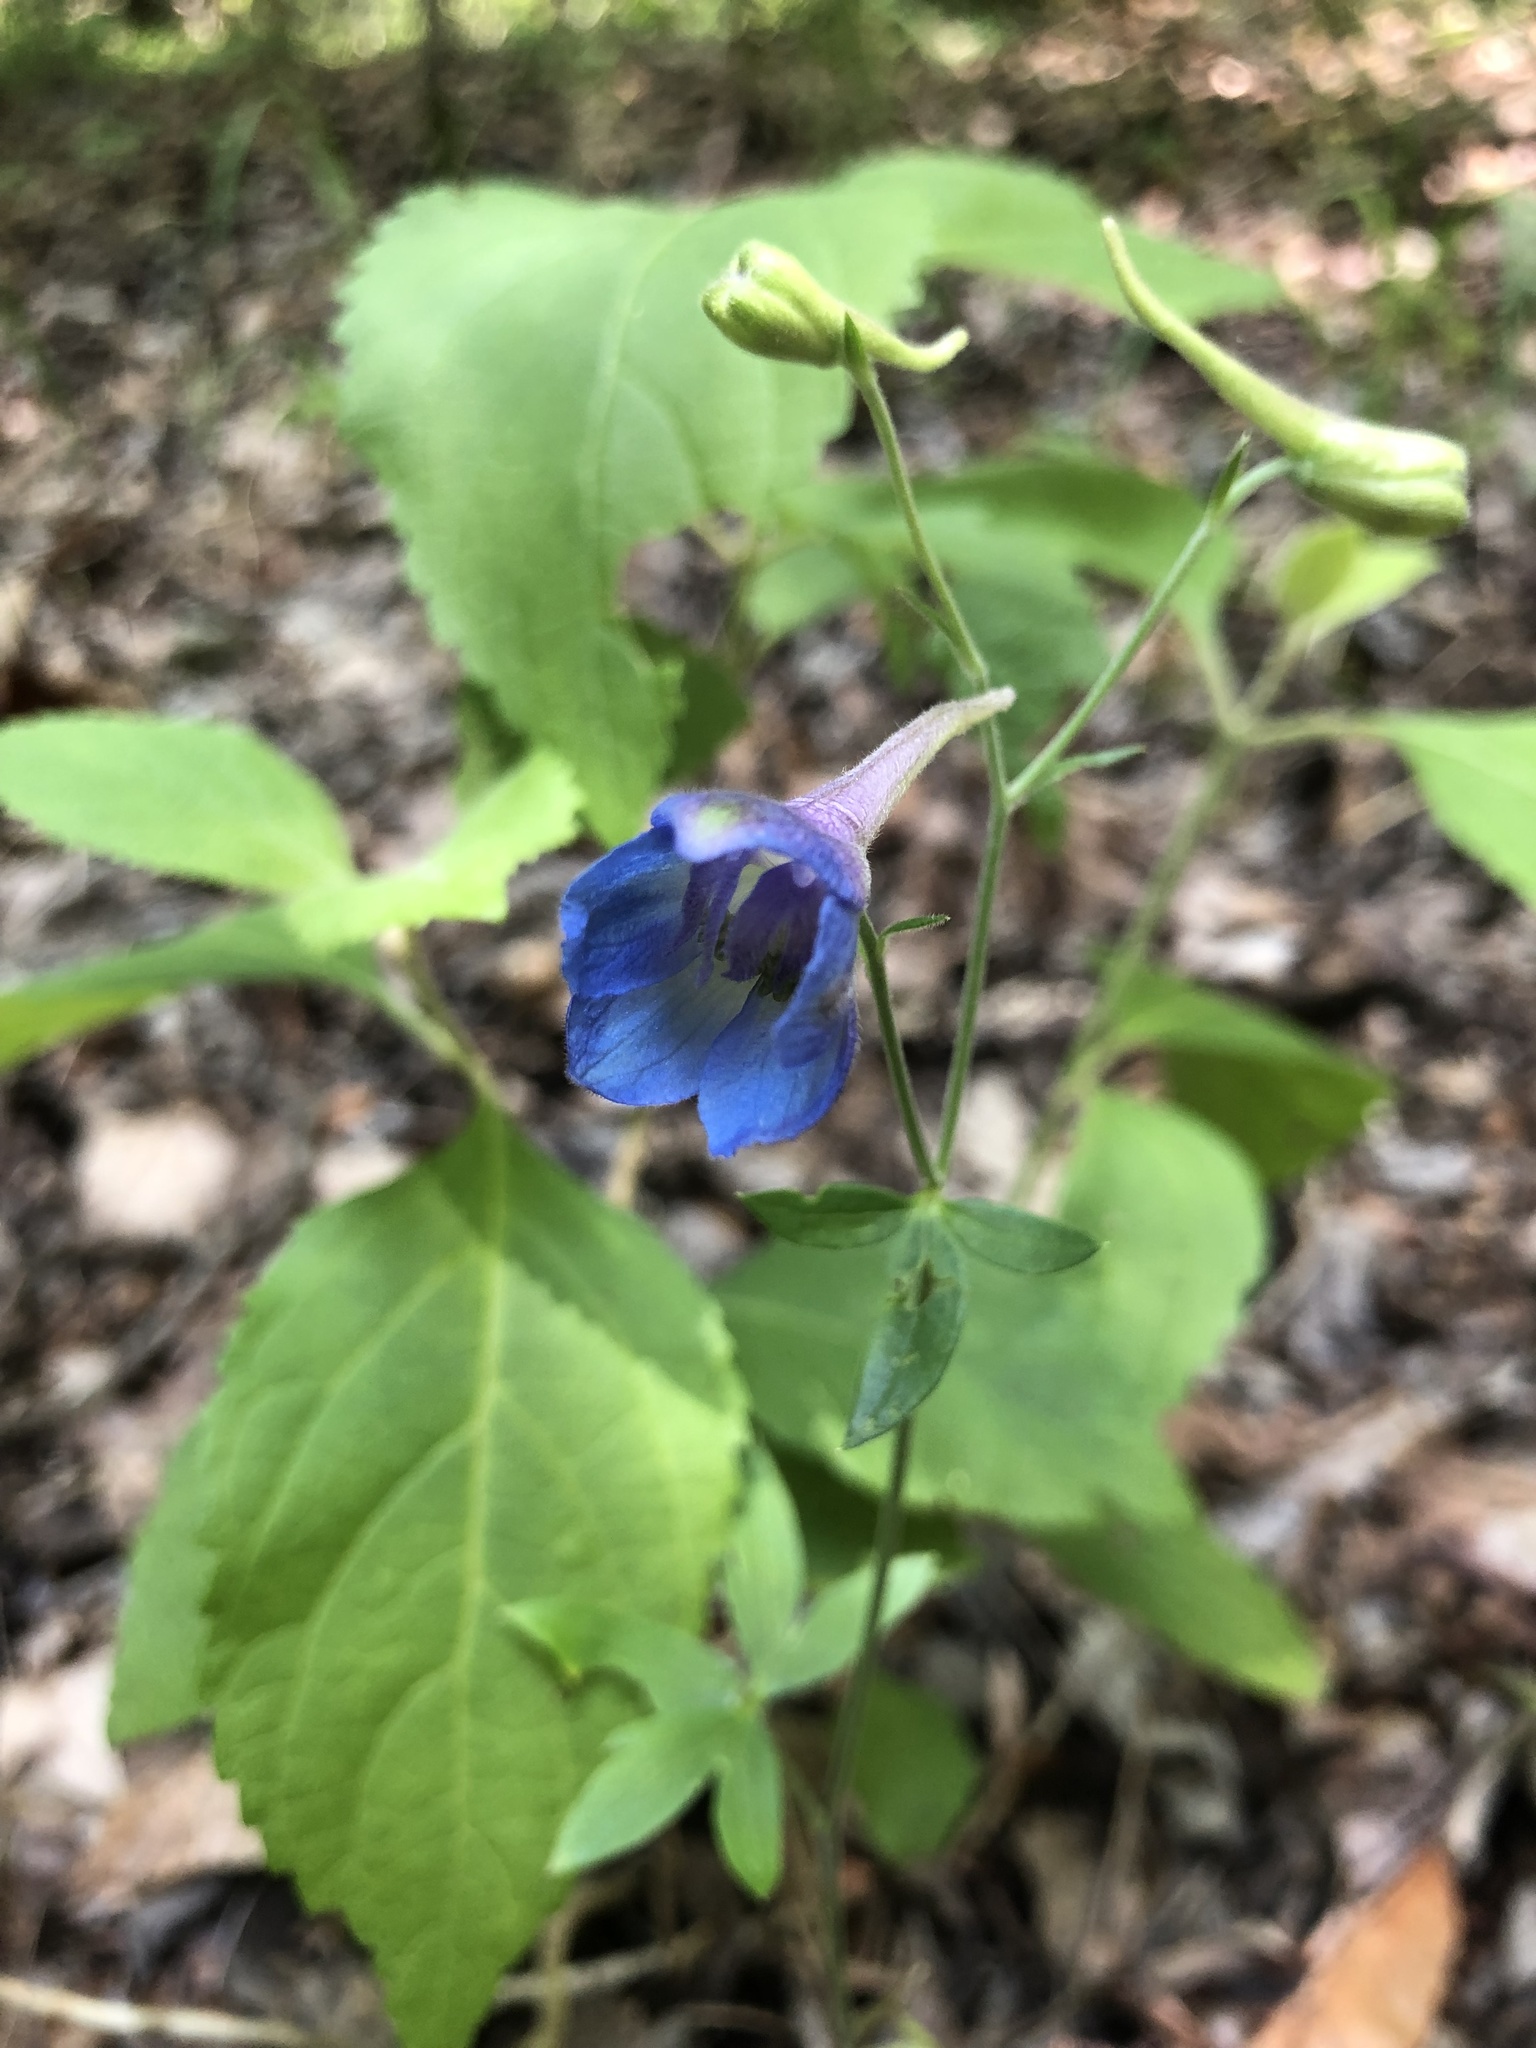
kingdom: Plantae
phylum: Tracheophyta
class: Magnoliopsida
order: Ranunculales
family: Ranunculaceae
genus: Delphinium
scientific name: Delphinium alabamicum
